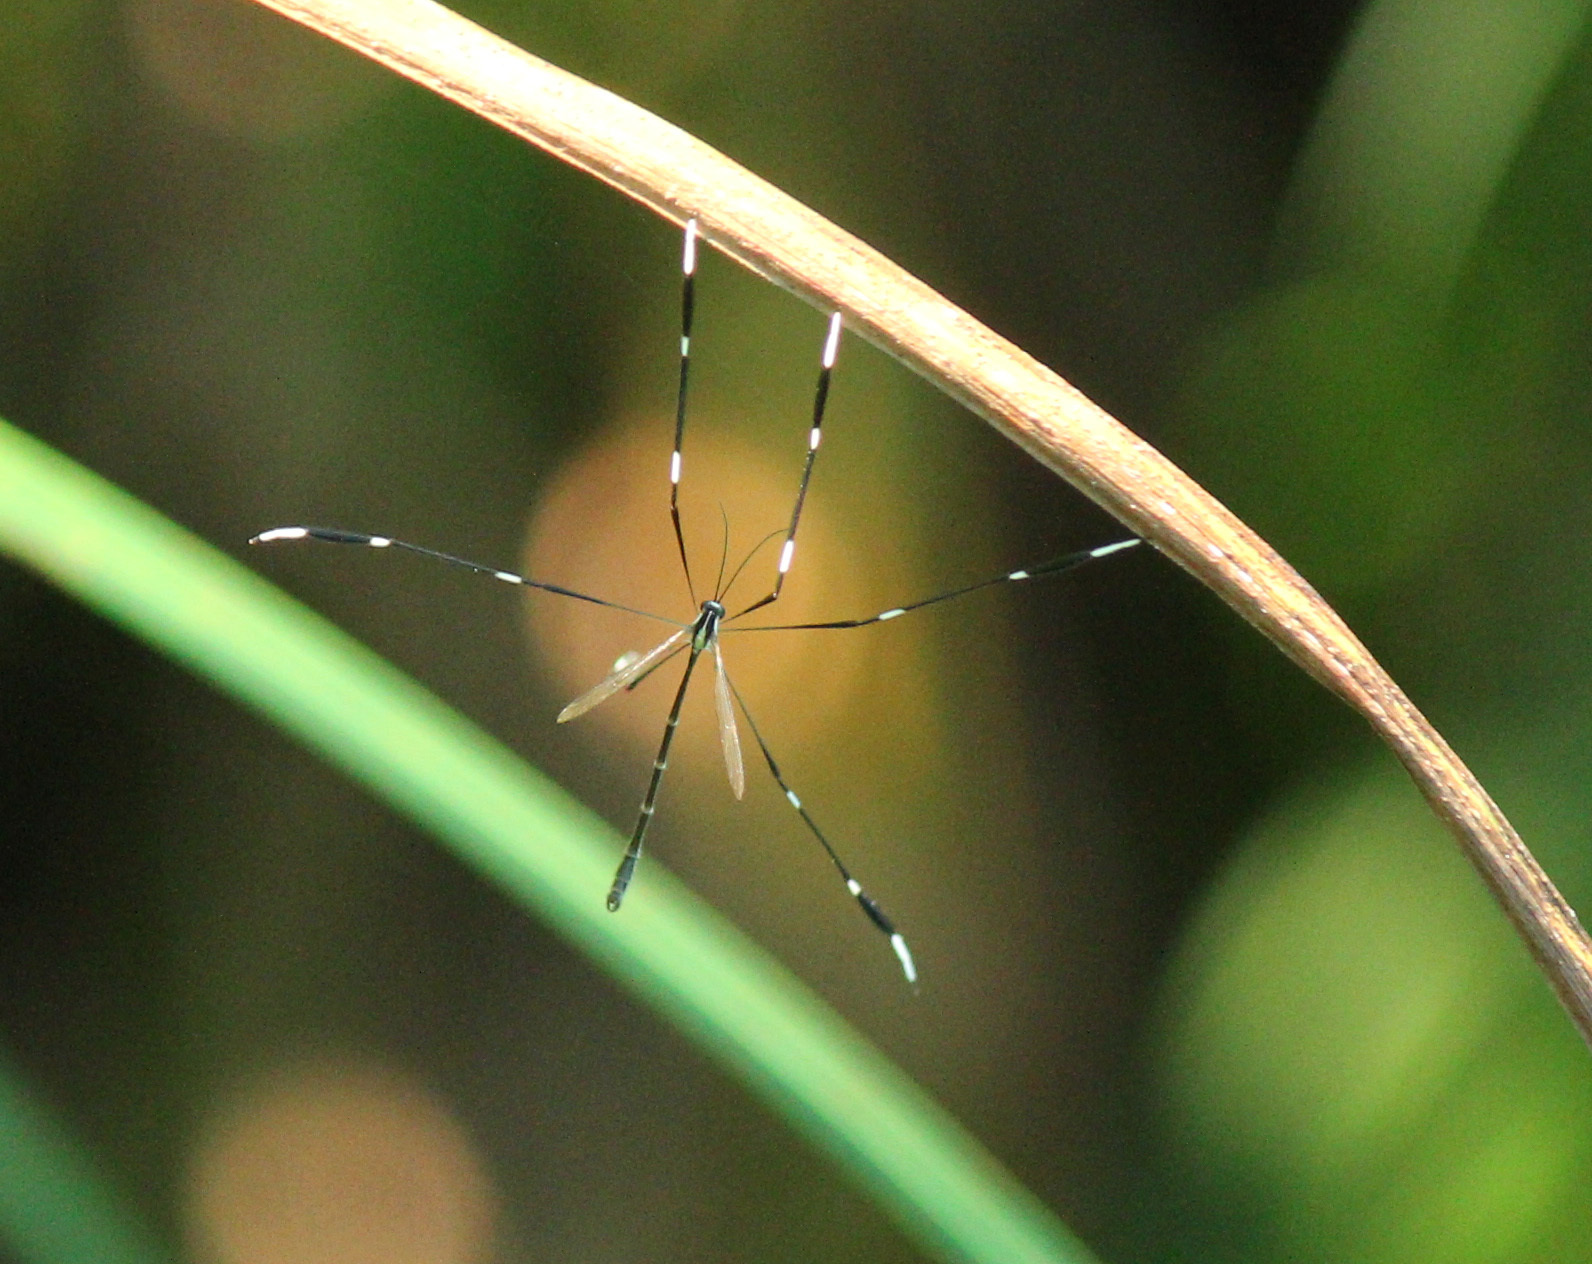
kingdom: Animalia
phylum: Arthropoda
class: Insecta
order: Diptera
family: Ptychopteridae
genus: Bittacomorpha
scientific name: Bittacomorpha clavipes
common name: Eastern phantom crane fly
